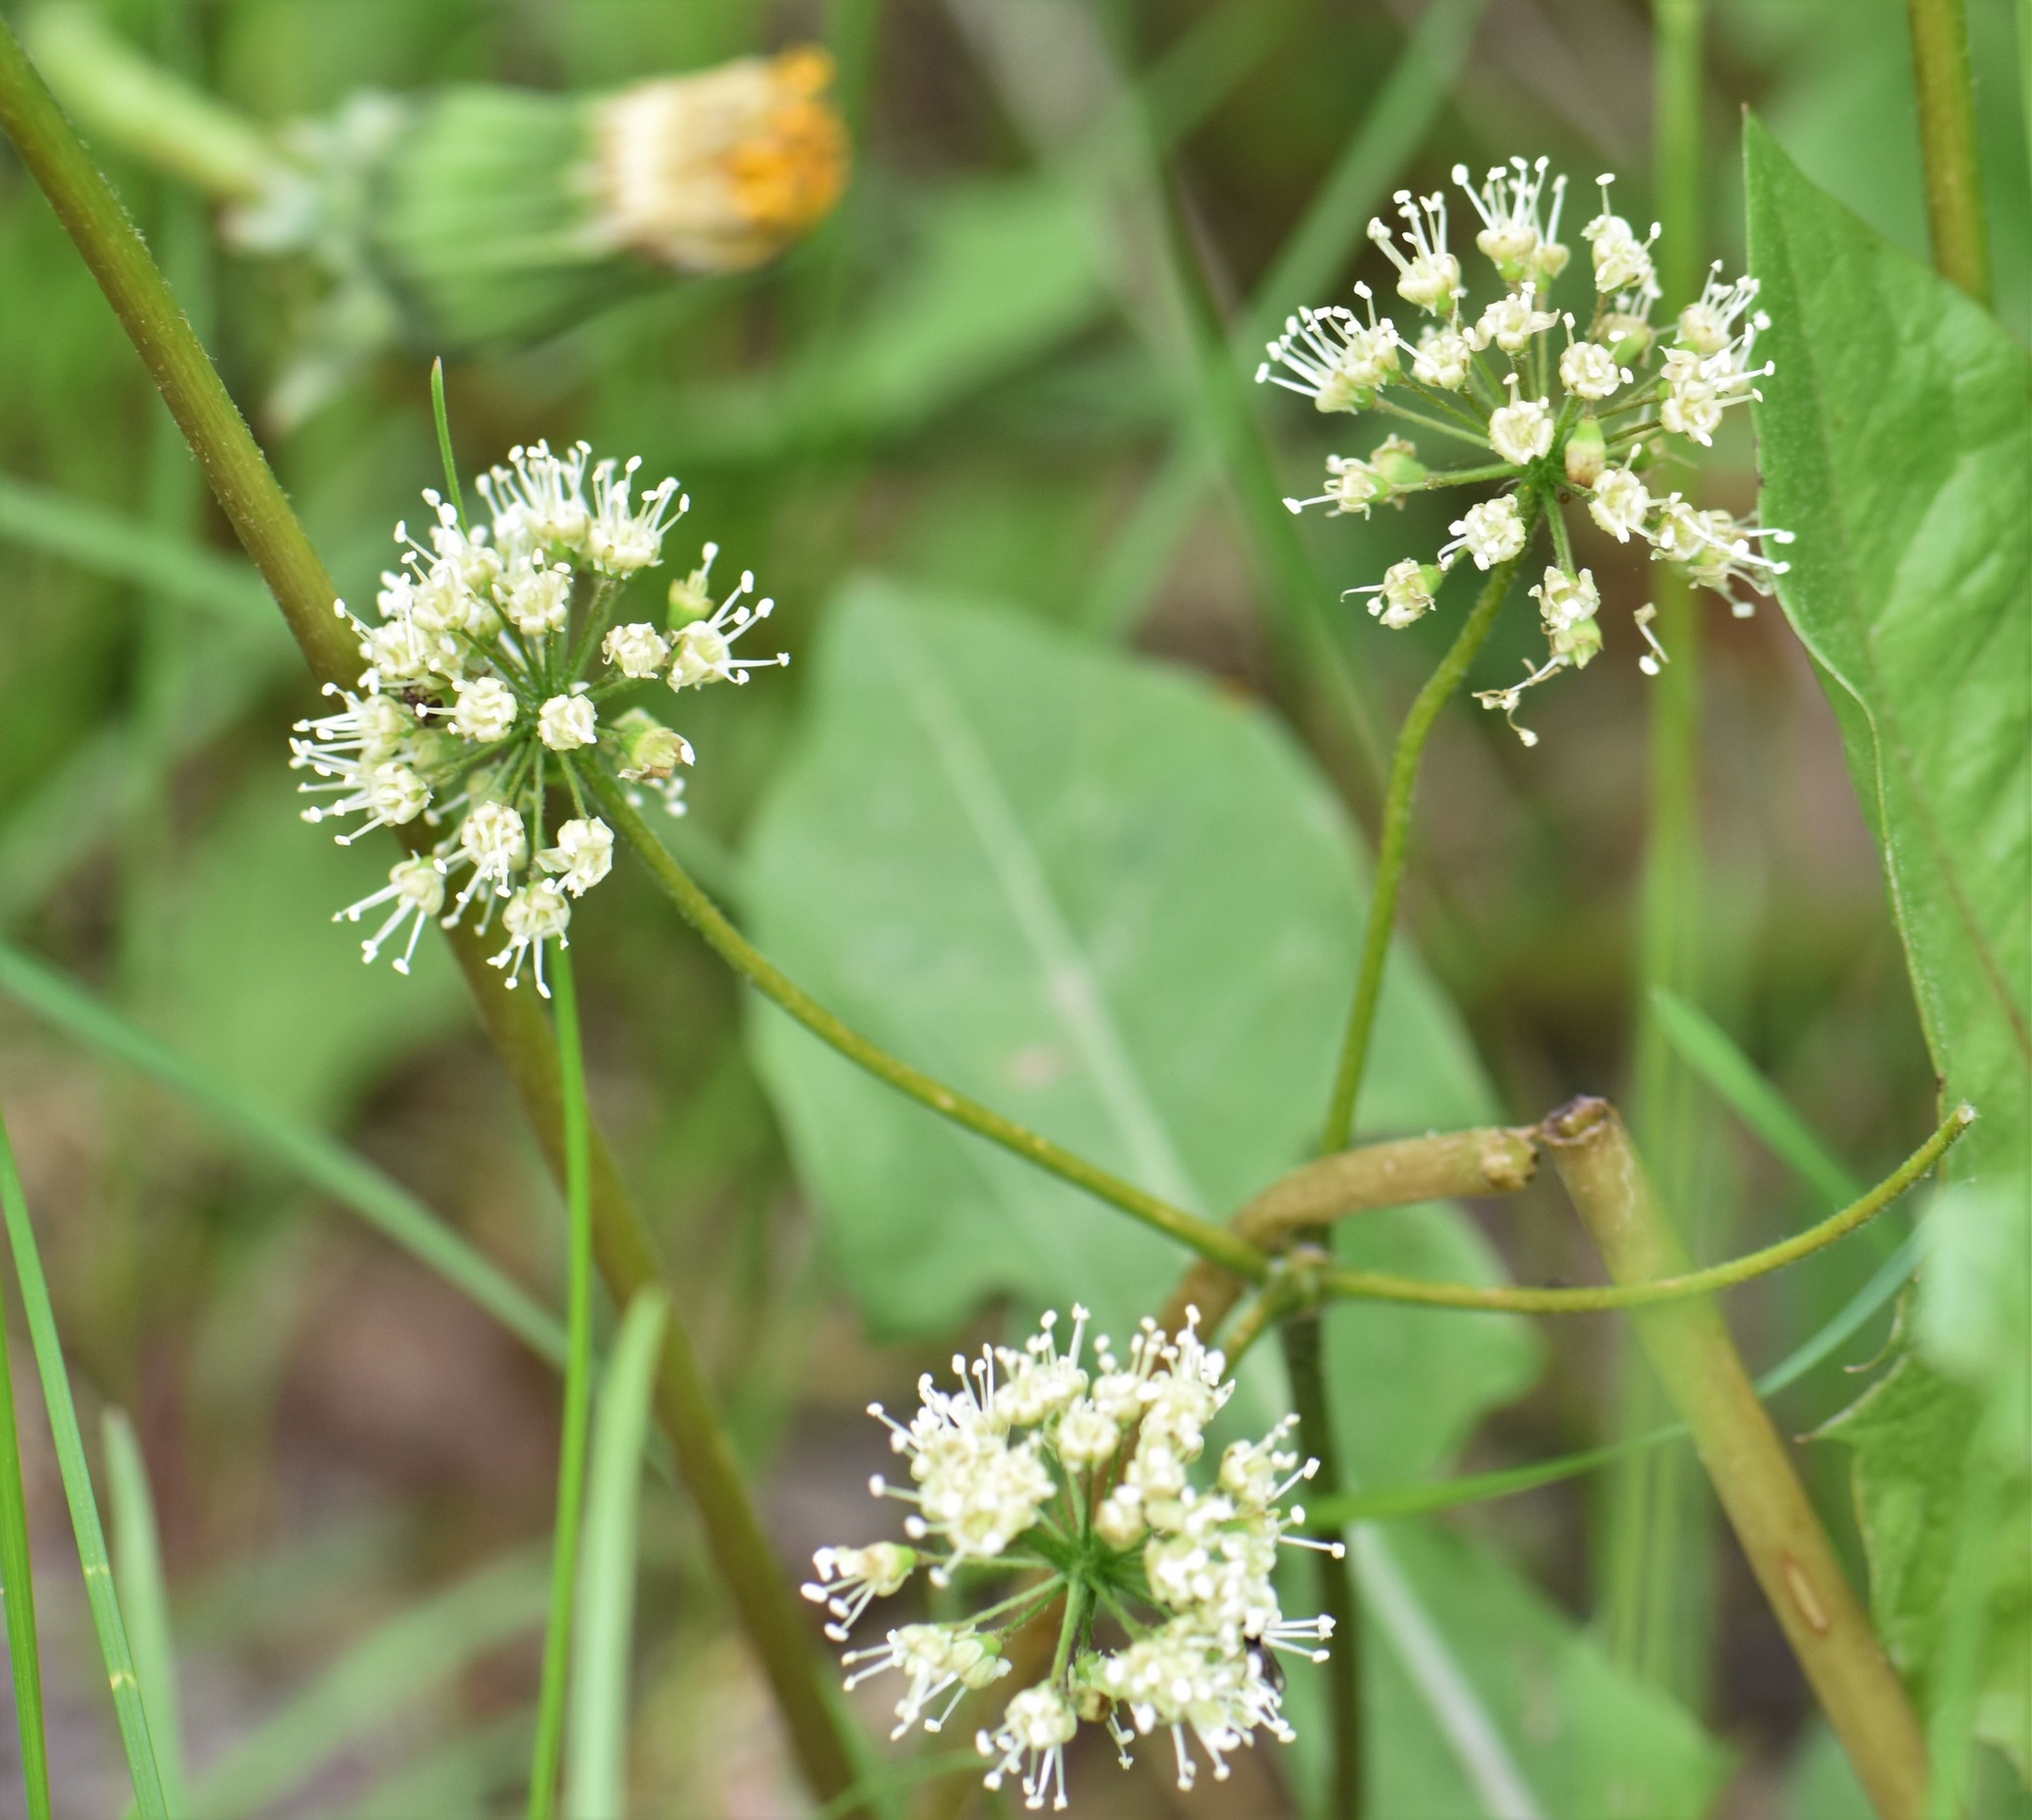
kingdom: Plantae
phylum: Tracheophyta
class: Magnoliopsida
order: Apiales
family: Araliaceae
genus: Aralia
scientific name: Aralia nudicaulis
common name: Wild sarsaparilla
